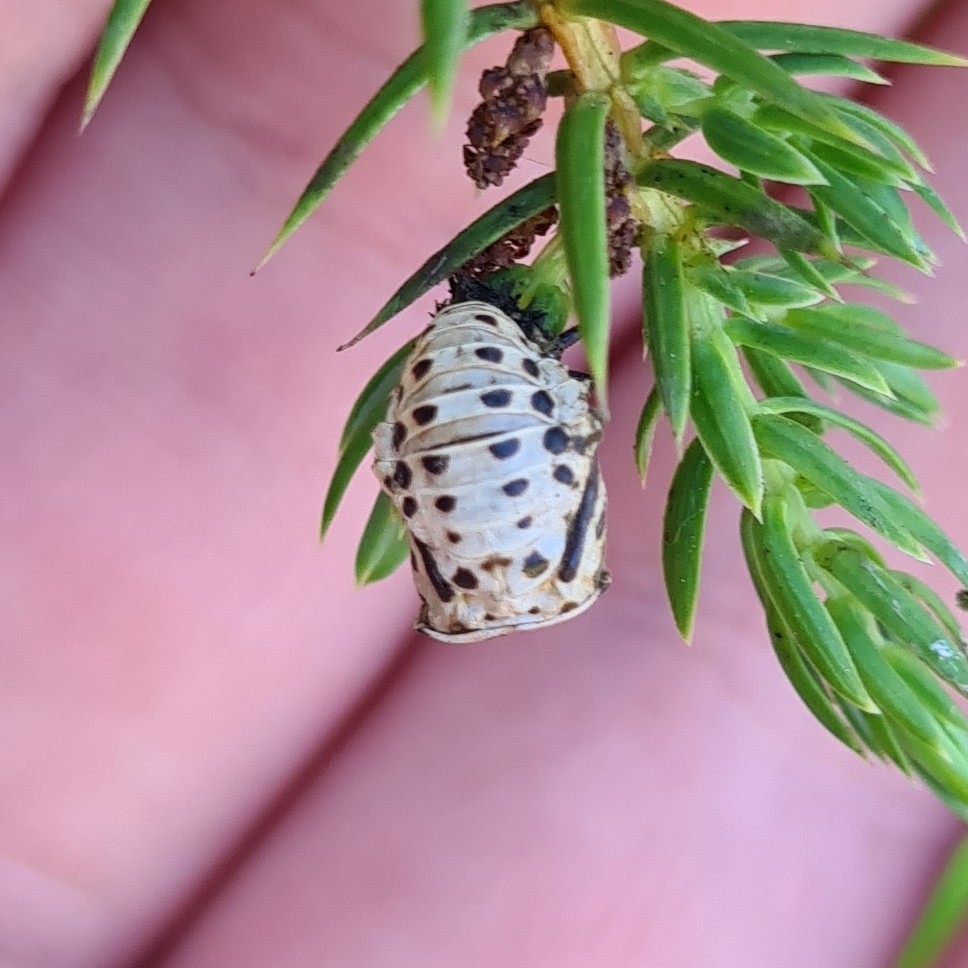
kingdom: Animalia
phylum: Arthropoda
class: Insecta
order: Coleoptera
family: Chrysomelidae
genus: Chrysomela
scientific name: Chrysomela vigintipunctata
